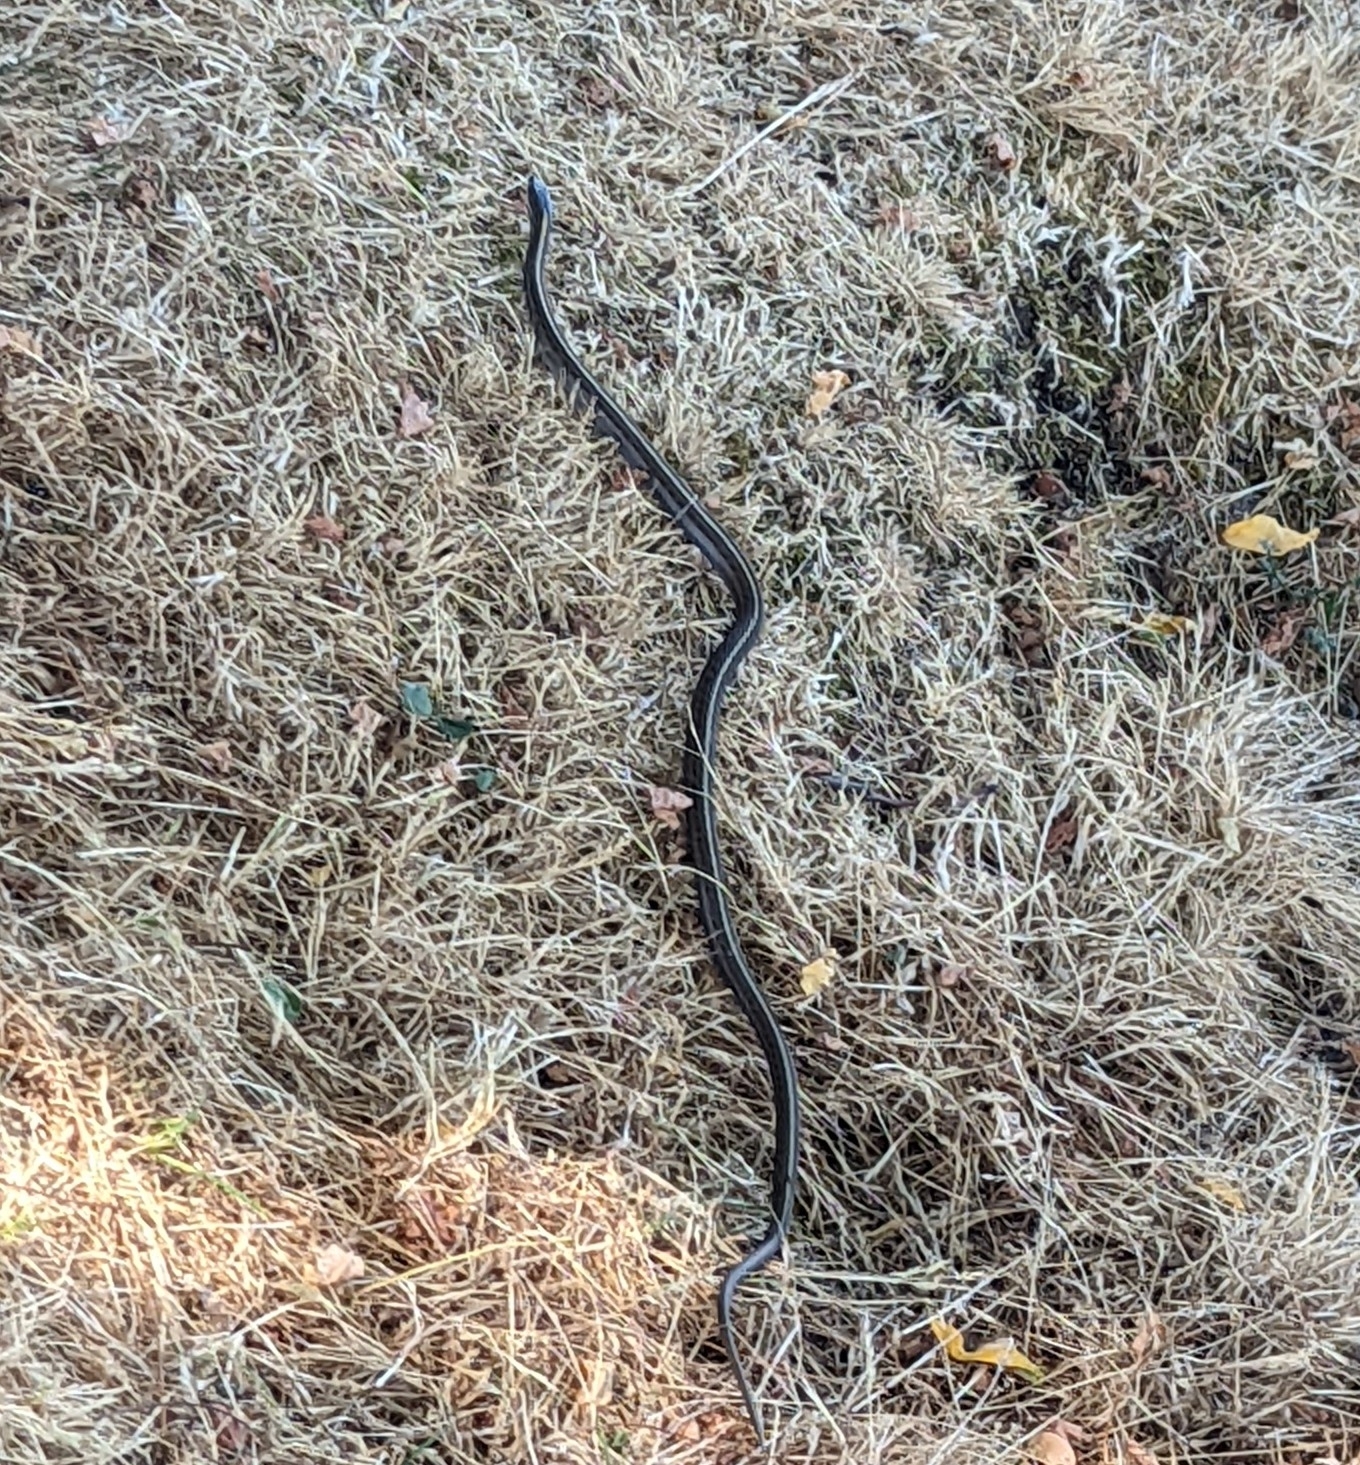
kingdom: Animalia
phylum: Chordata
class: Squamata
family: Colubridae
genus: Thamnophis
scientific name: Thamnophis ordinoides
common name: Northwestern garter snake
